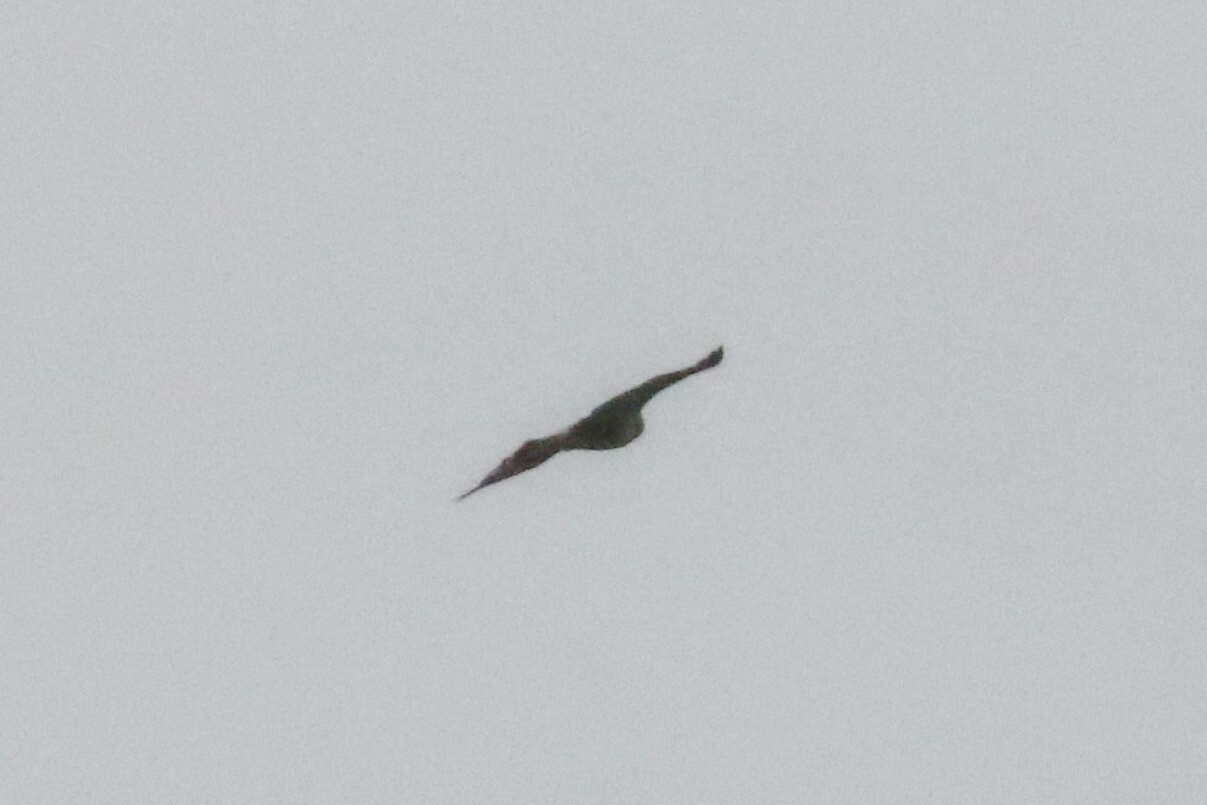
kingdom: Animalia
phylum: Chordata
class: Aves
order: Accipitriformes
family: Accipitridae
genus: Buteo
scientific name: Buteo lagopus
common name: Rough-legged buzzard
